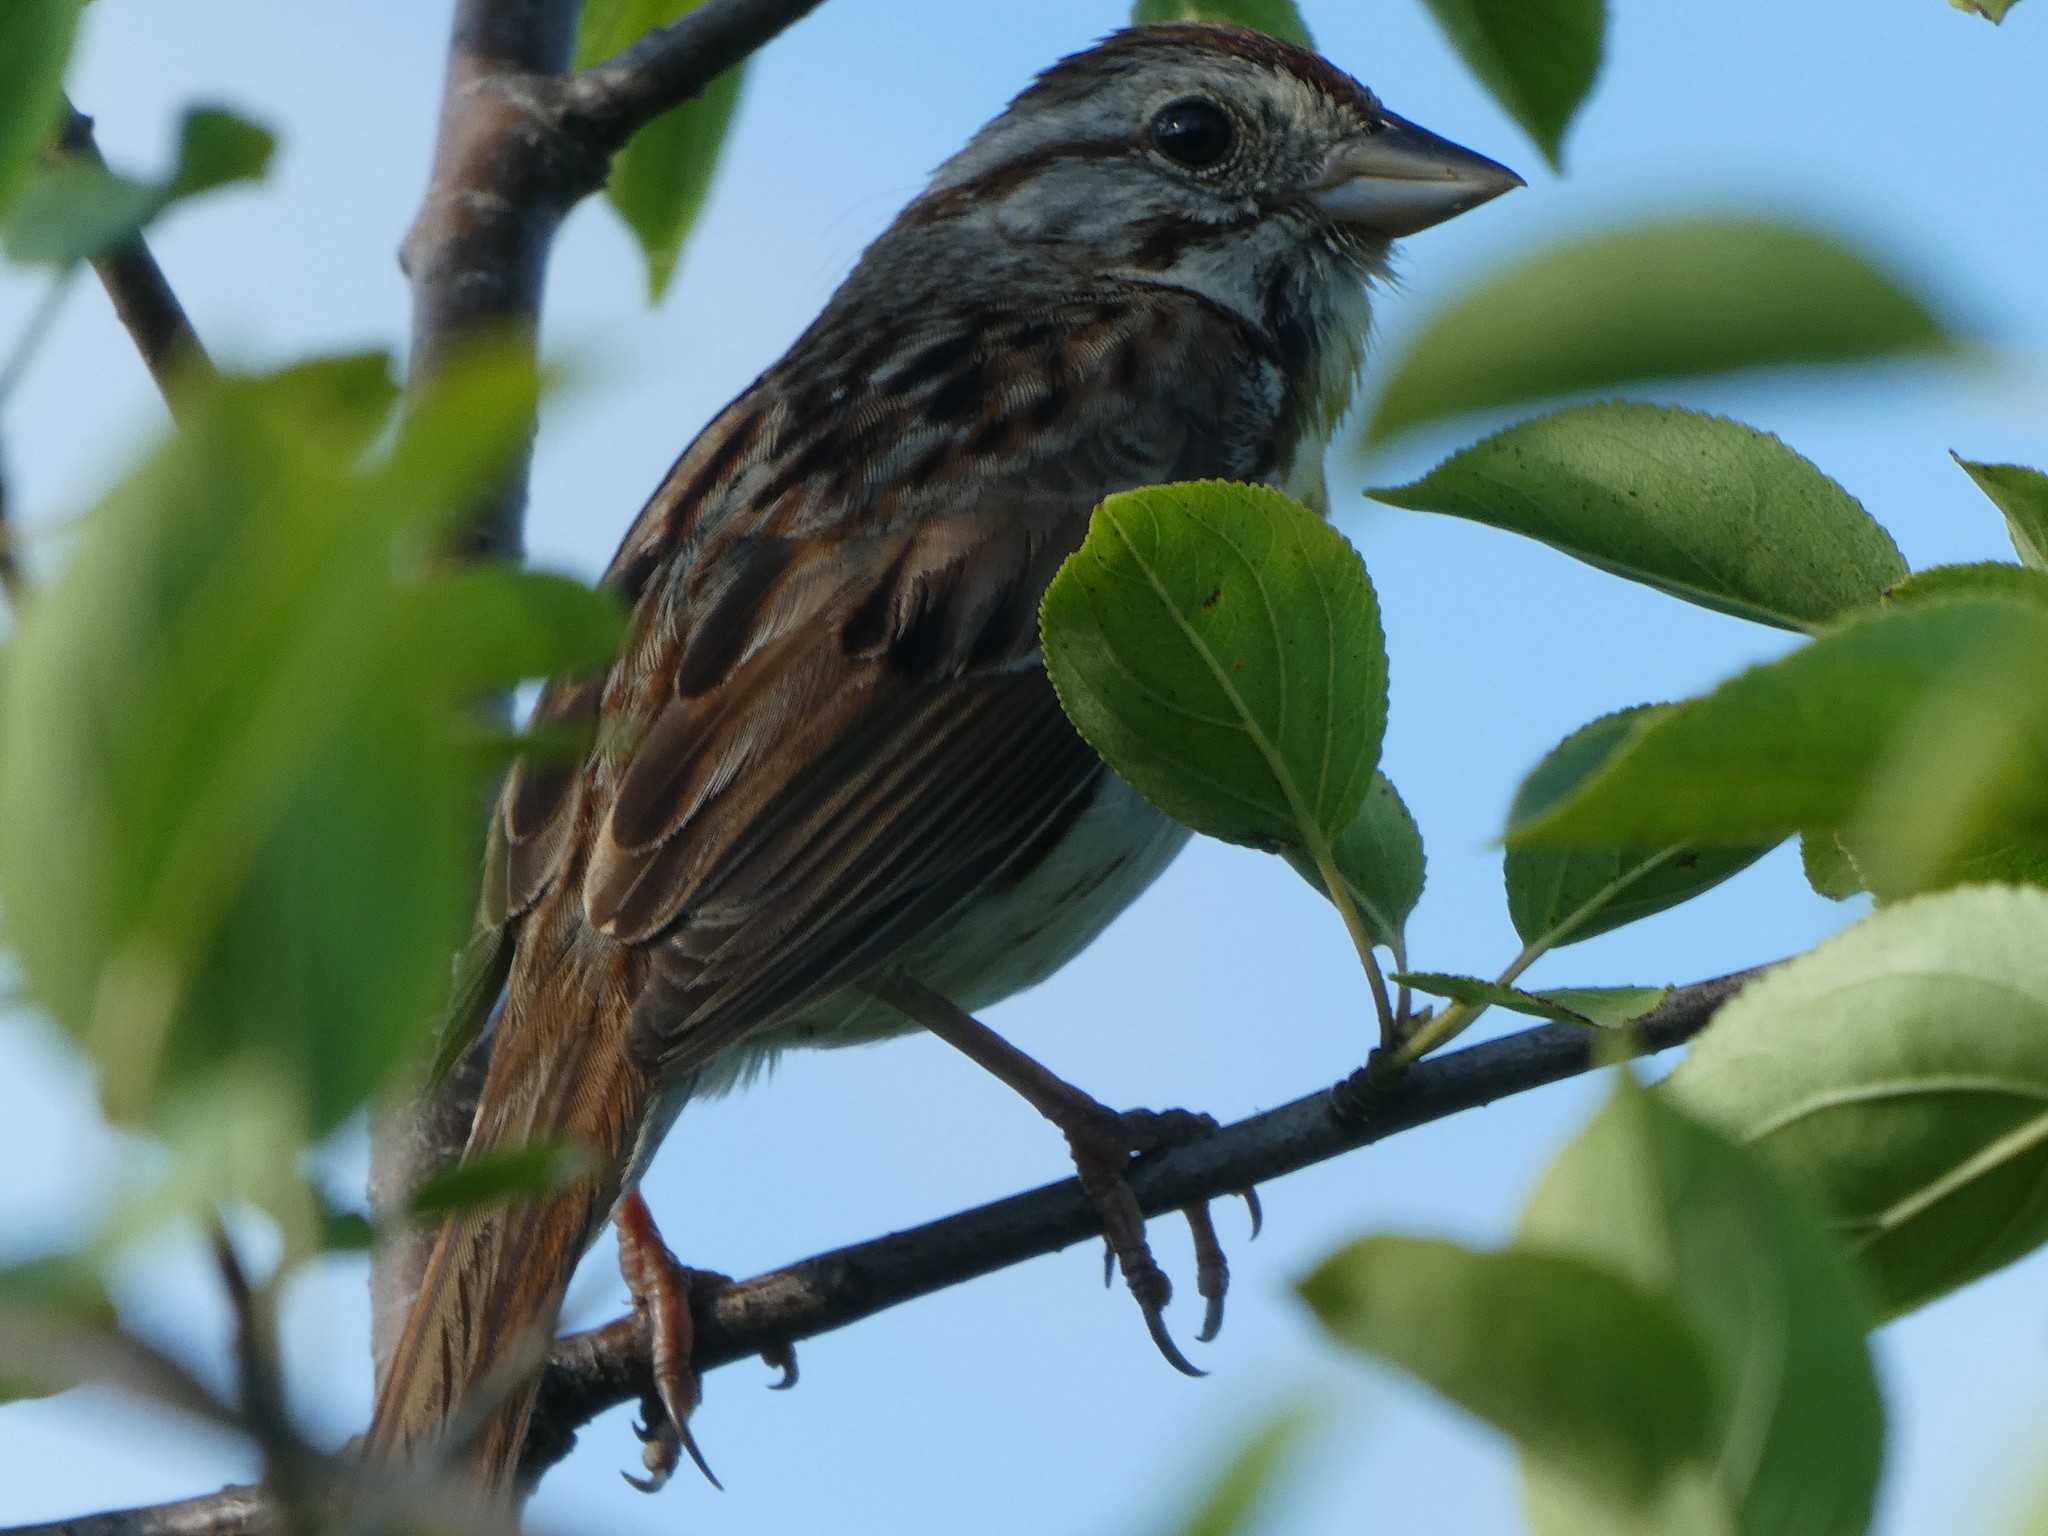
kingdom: Animalia
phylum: Chordata
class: Aves
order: Passeriformes
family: Passerellidae
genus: Melospiza
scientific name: Melospiza melodia
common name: Song sparrow
